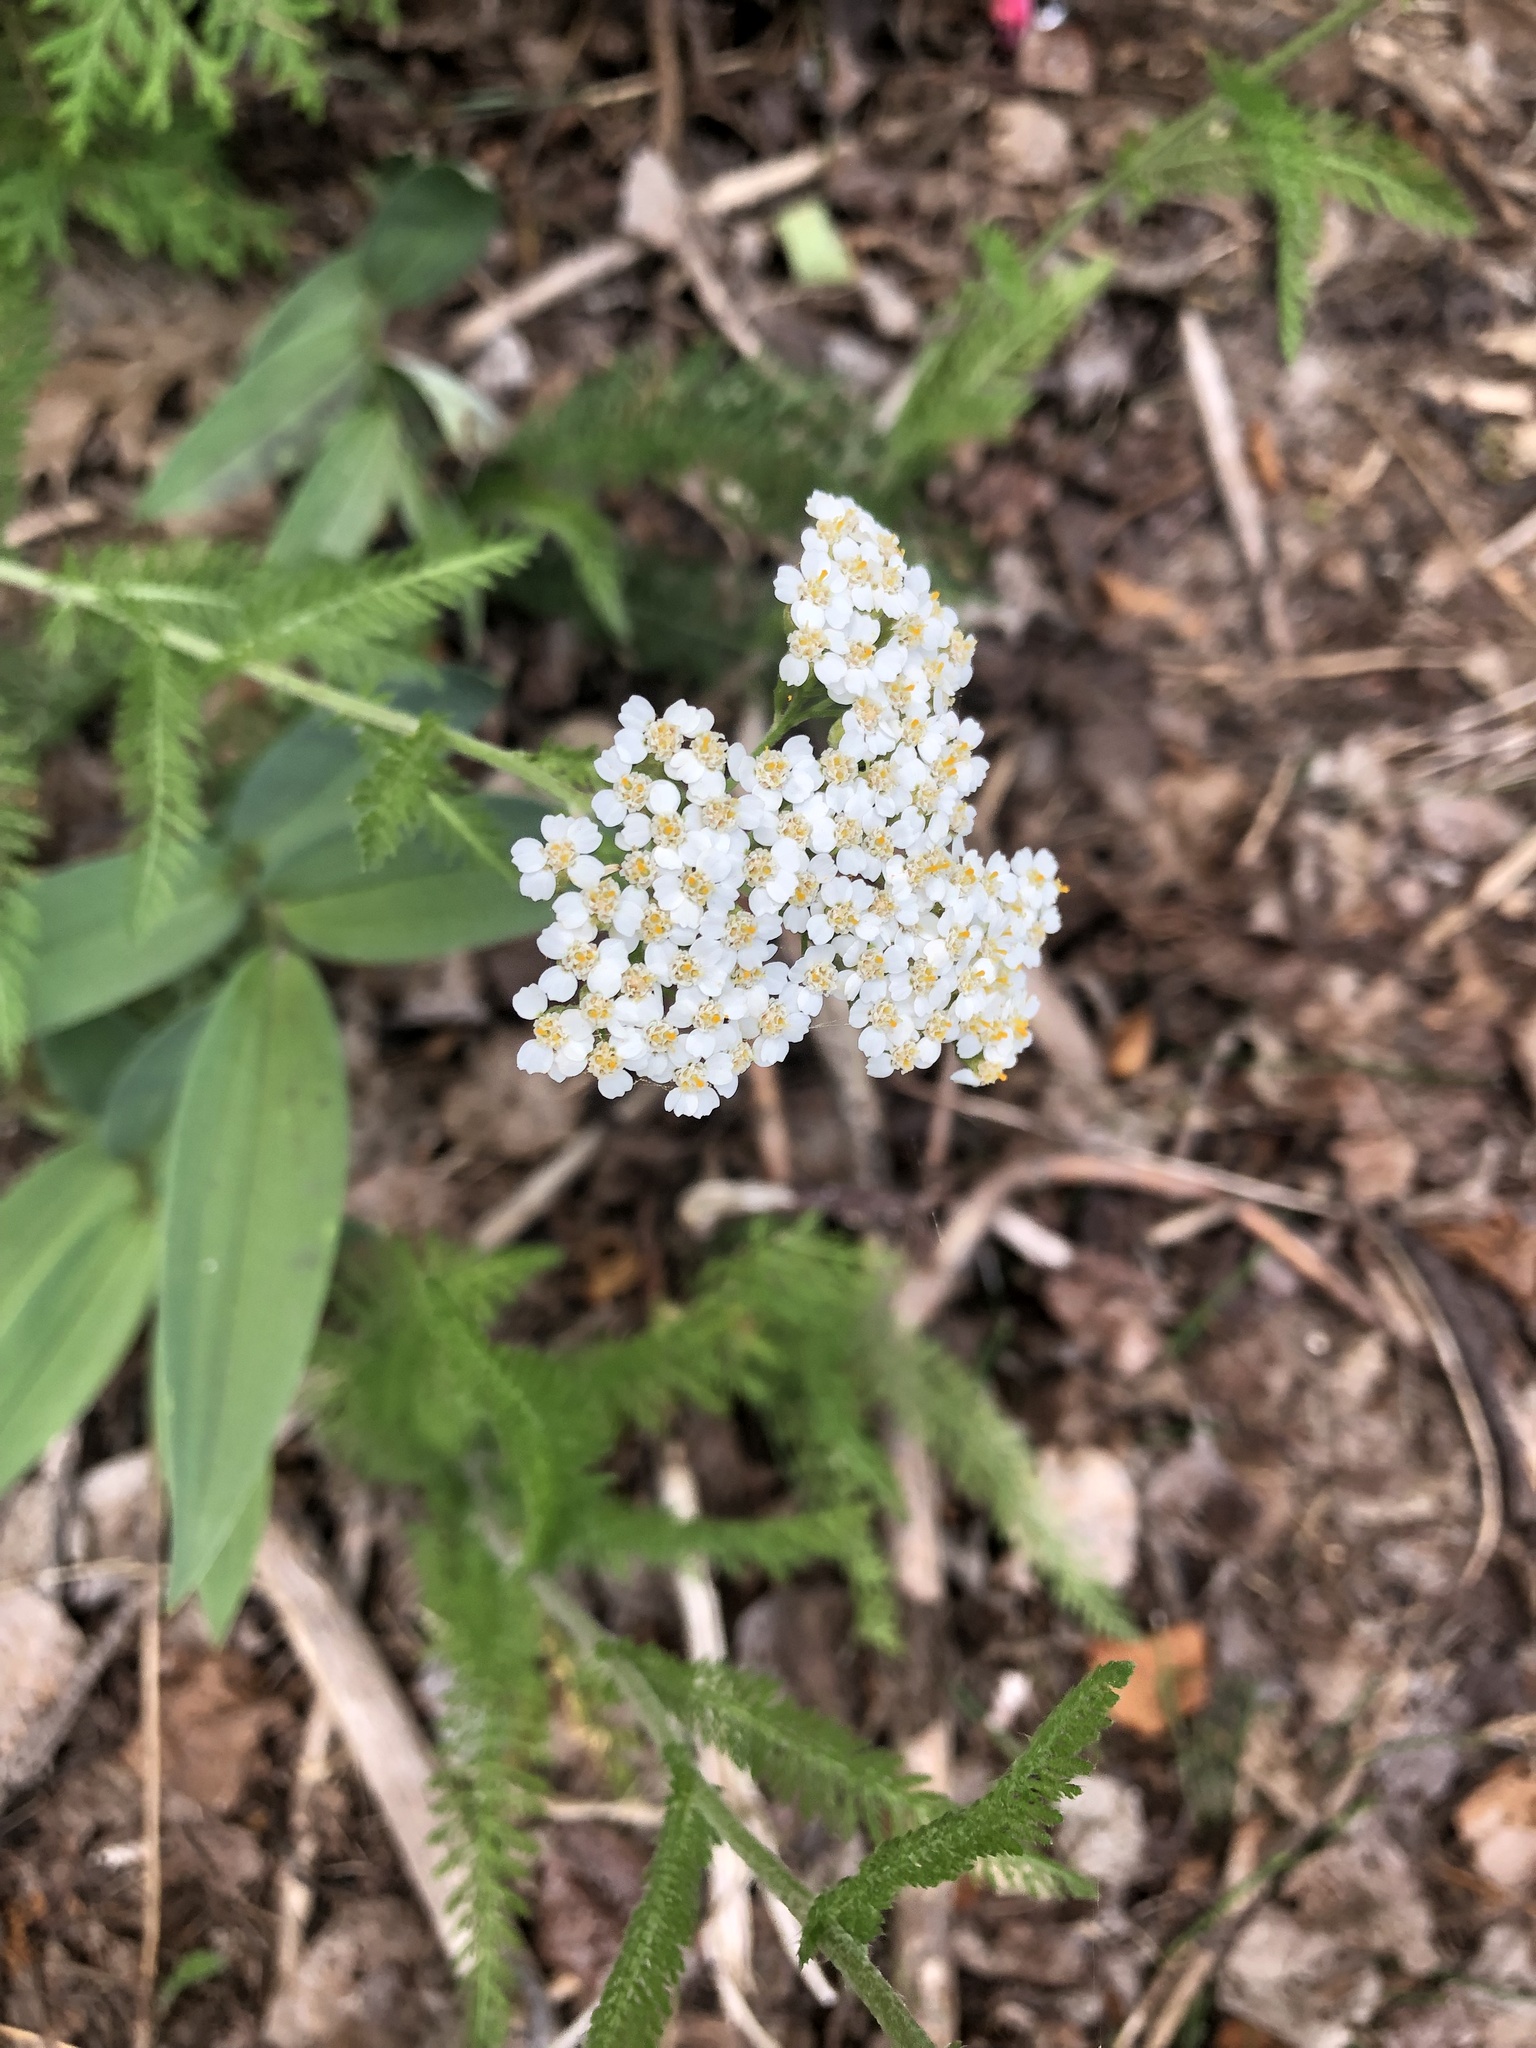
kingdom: Plantae
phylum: Tracheophyta
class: Magnoliopsida
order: Asterales
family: Asteraceae
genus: Achillea
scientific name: Achillea millefolium
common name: Yarrow
